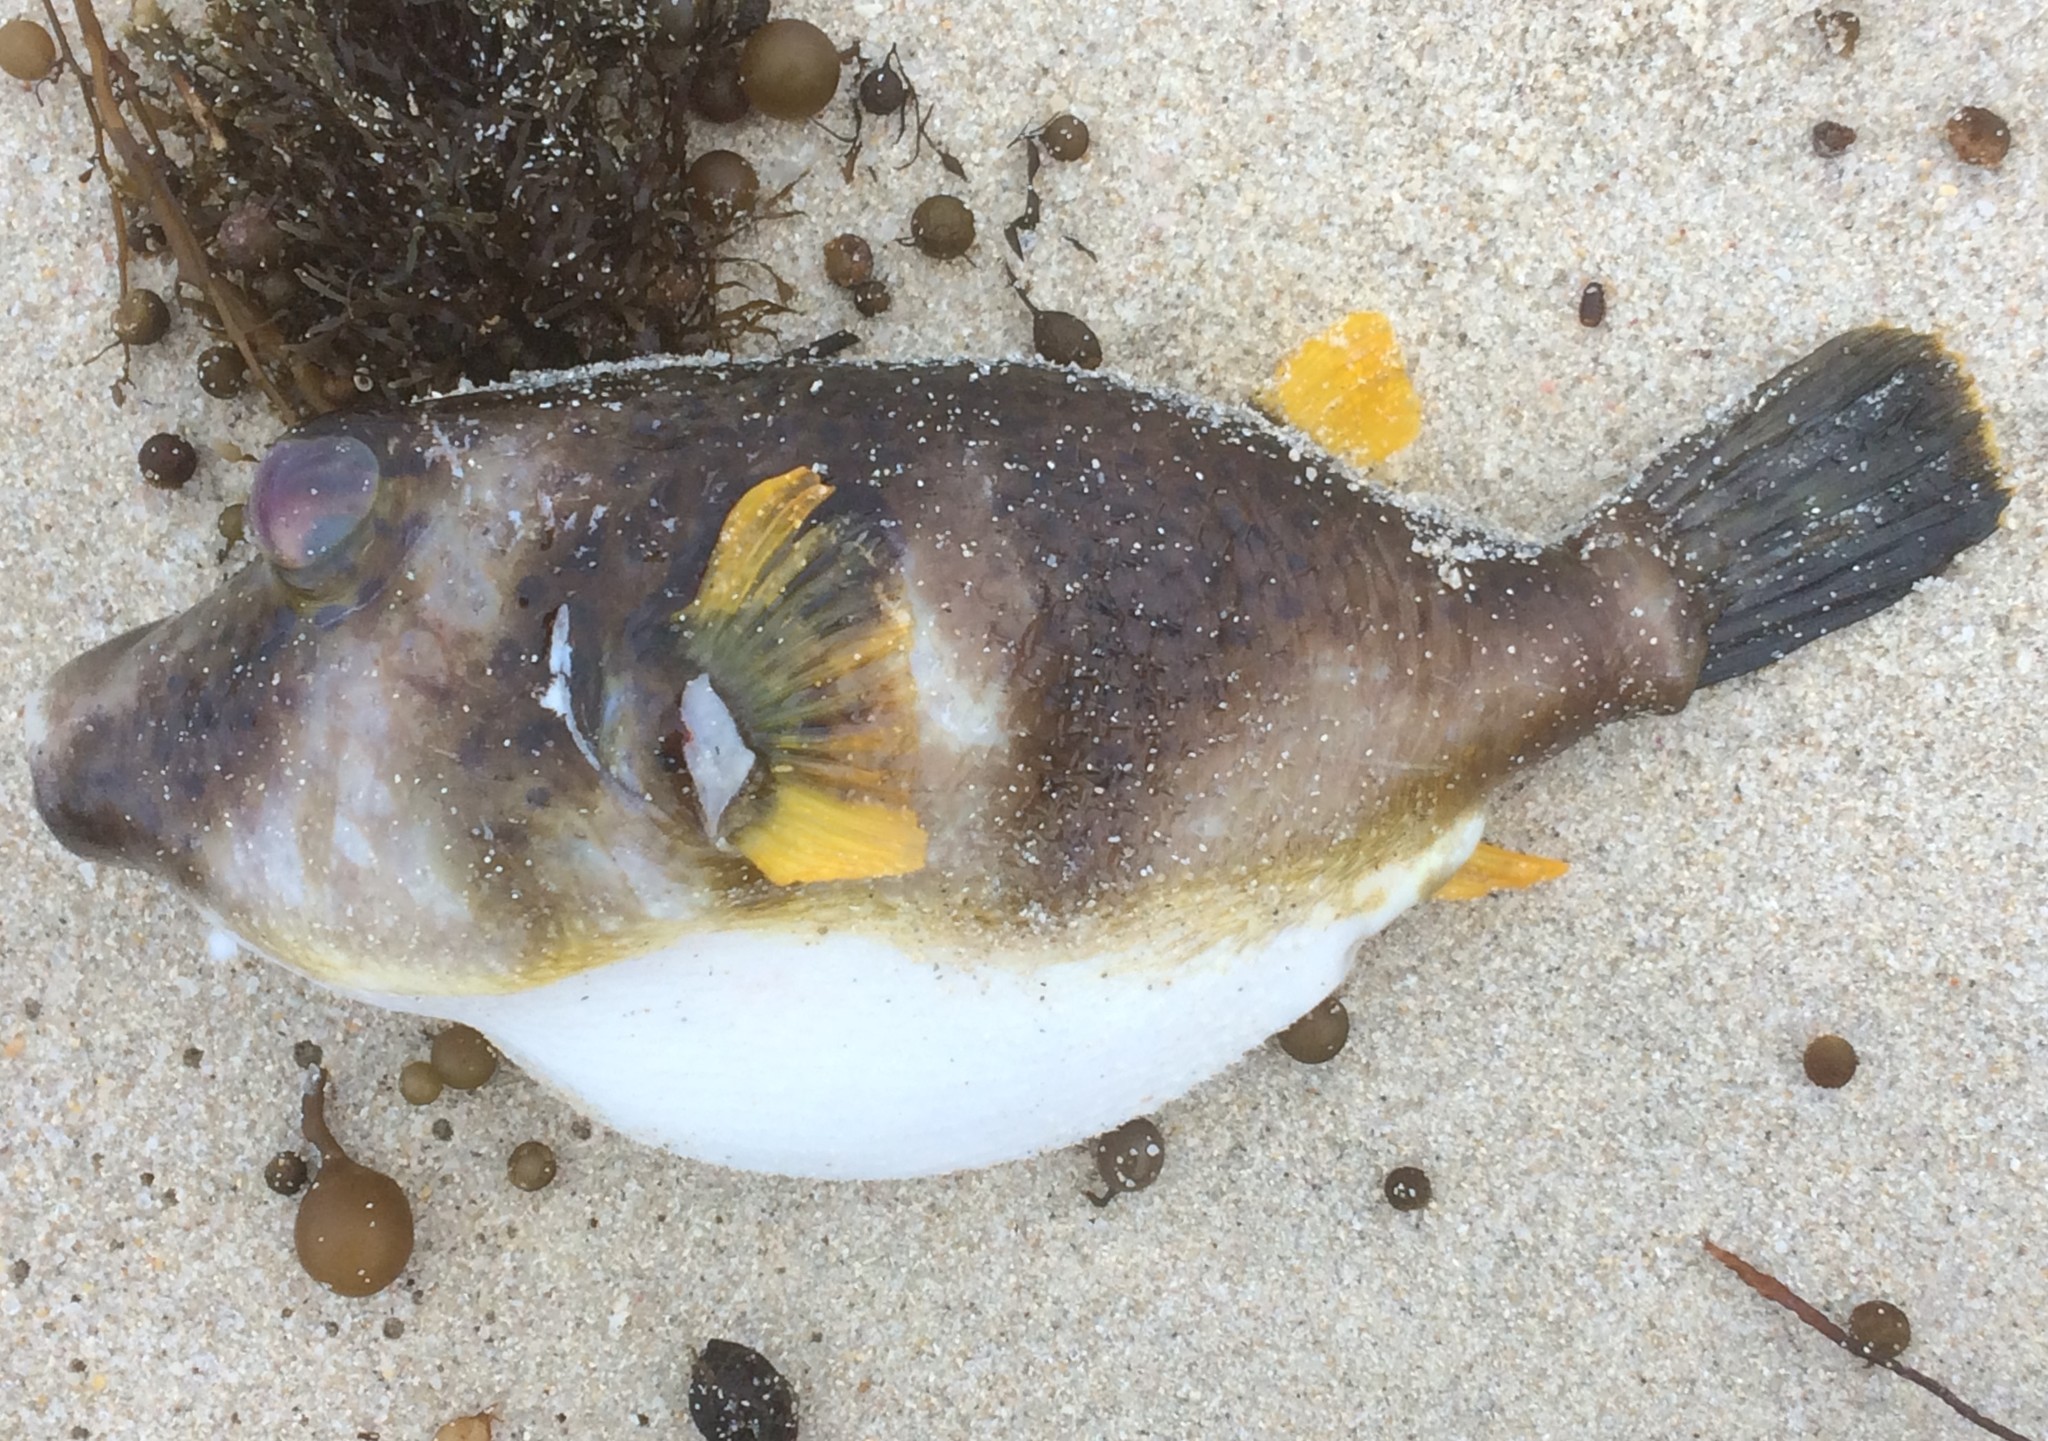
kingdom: Animalia
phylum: Chordata
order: Tetraodontiformes
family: Tetraodontidae
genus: Omegophora
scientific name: Omegophora cyanopunctata
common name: Bluespotted toadfish
